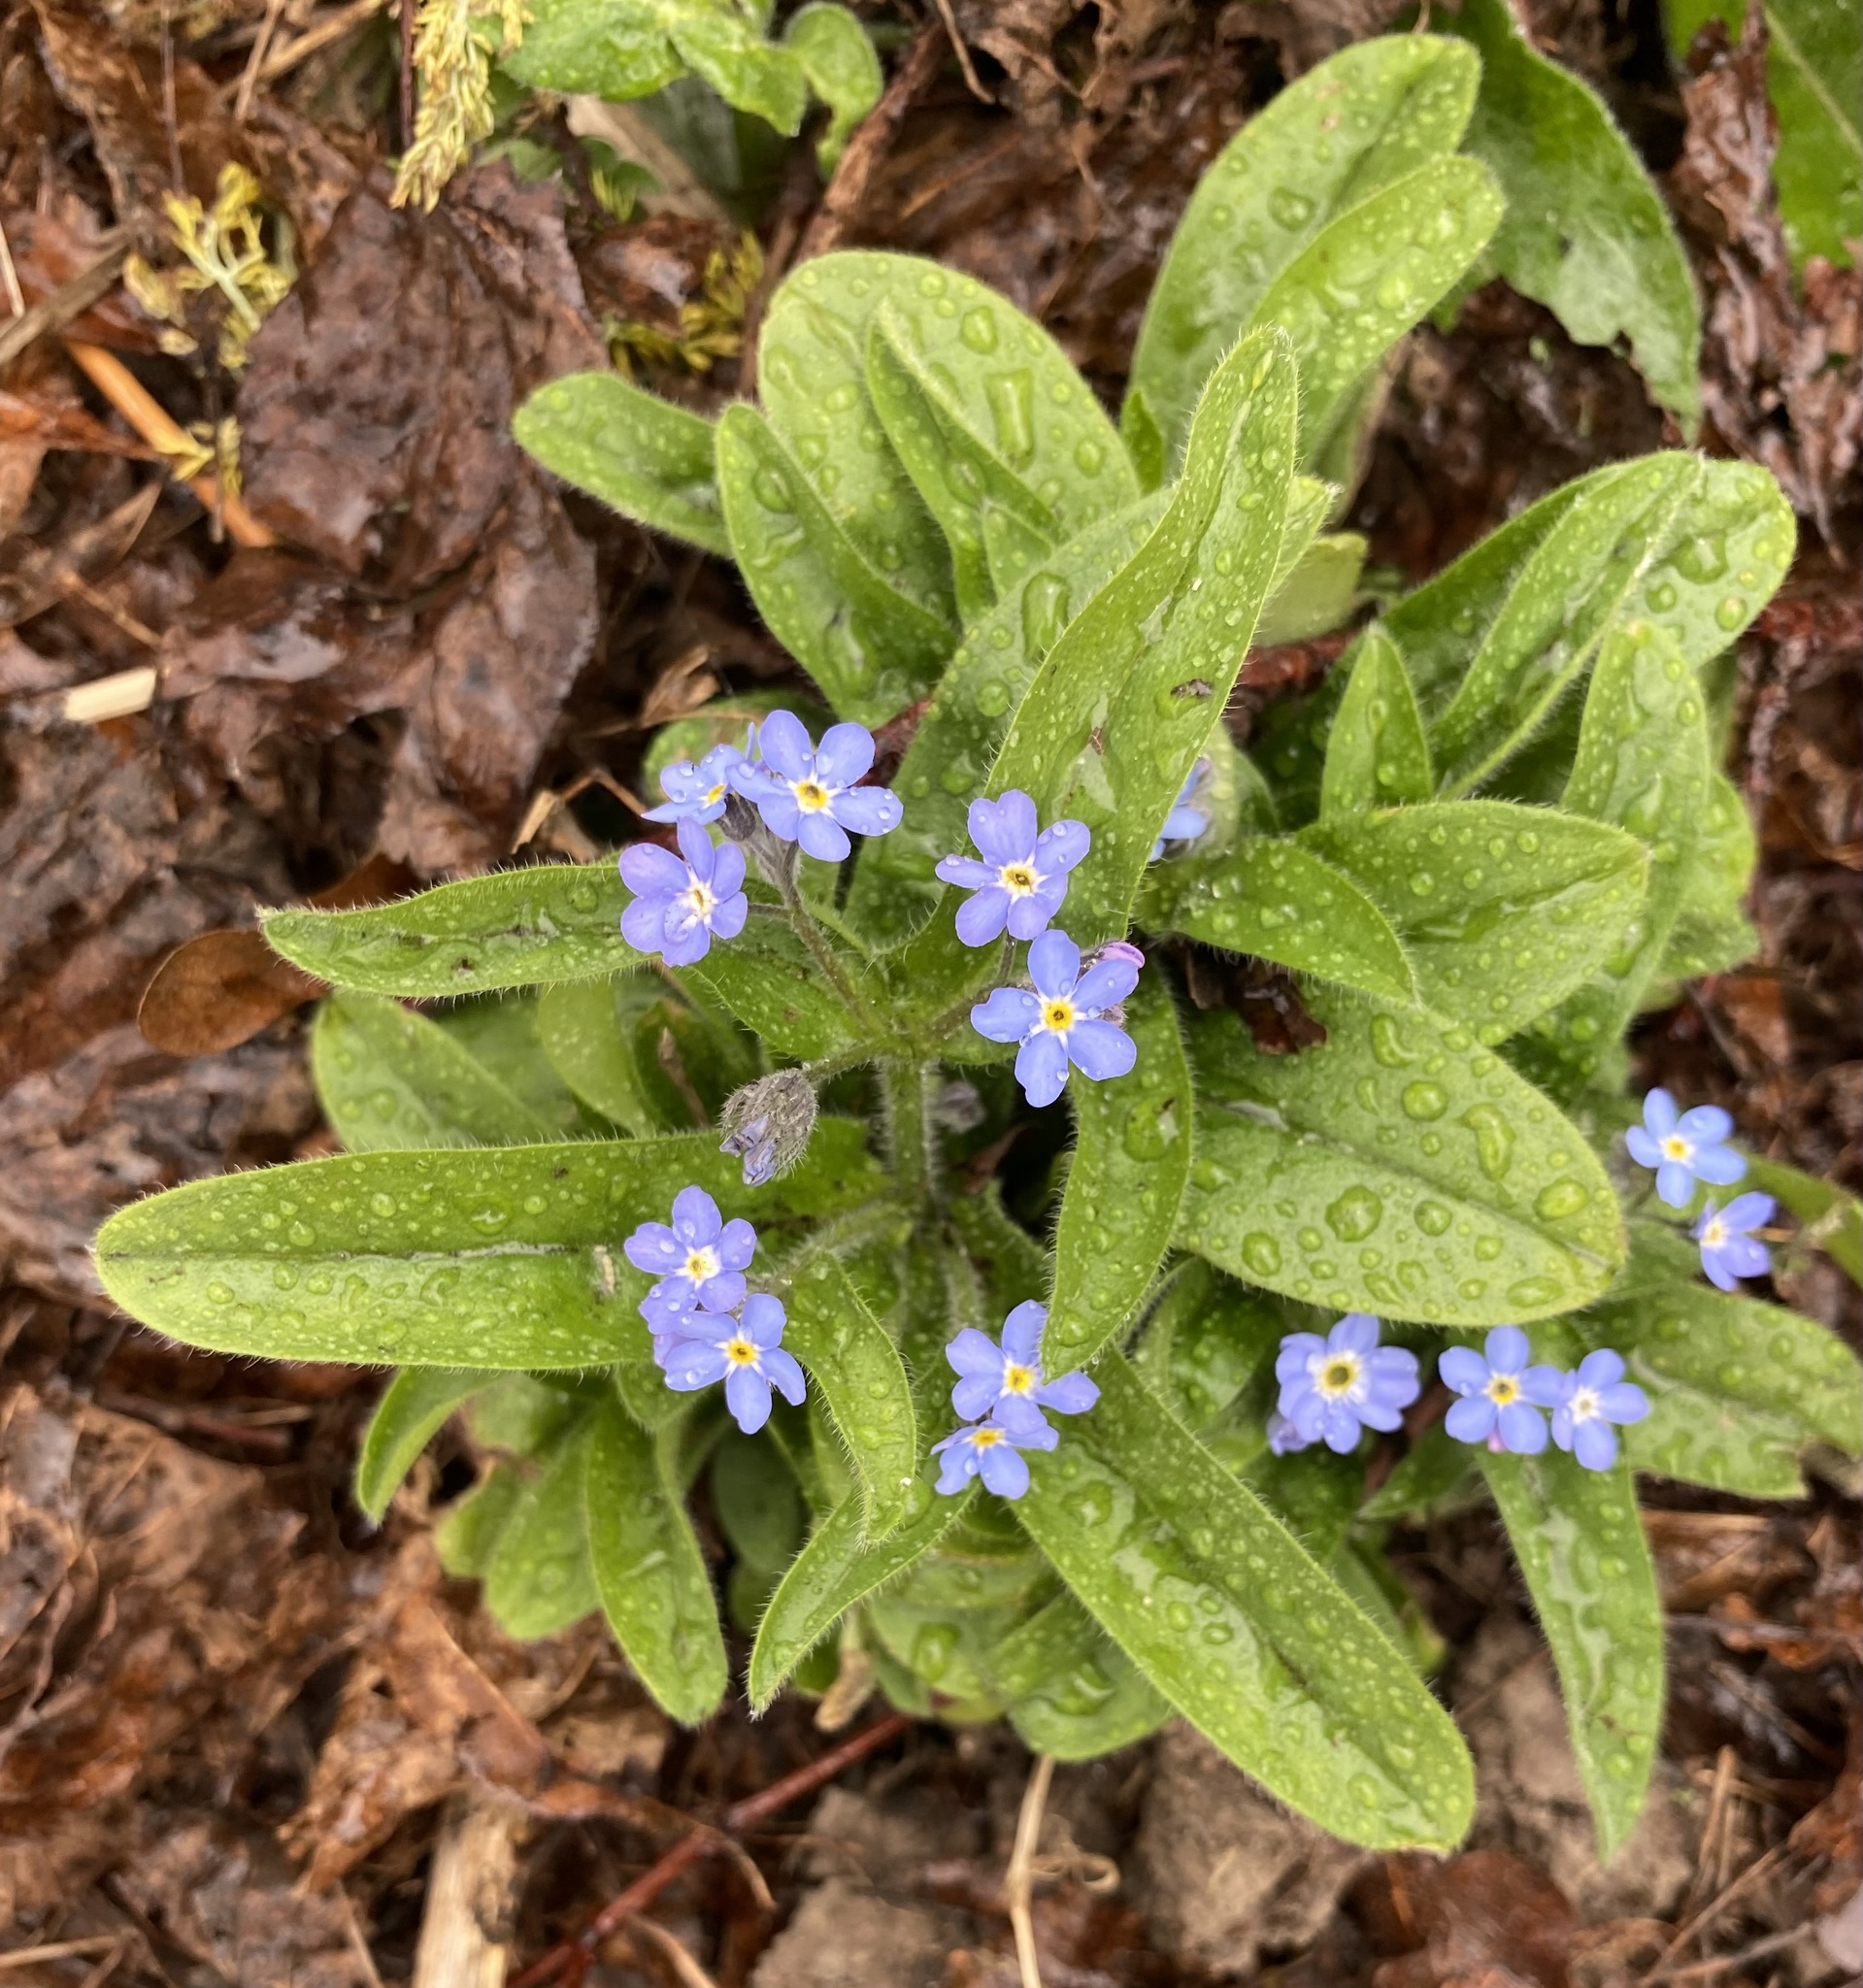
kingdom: Plantae
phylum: Tracheophyta
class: Magnoliopsida
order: Boraginales
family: Boraginaceae
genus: Myosotis
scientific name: Myosotis sylvatica
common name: Wood forget-me-not
